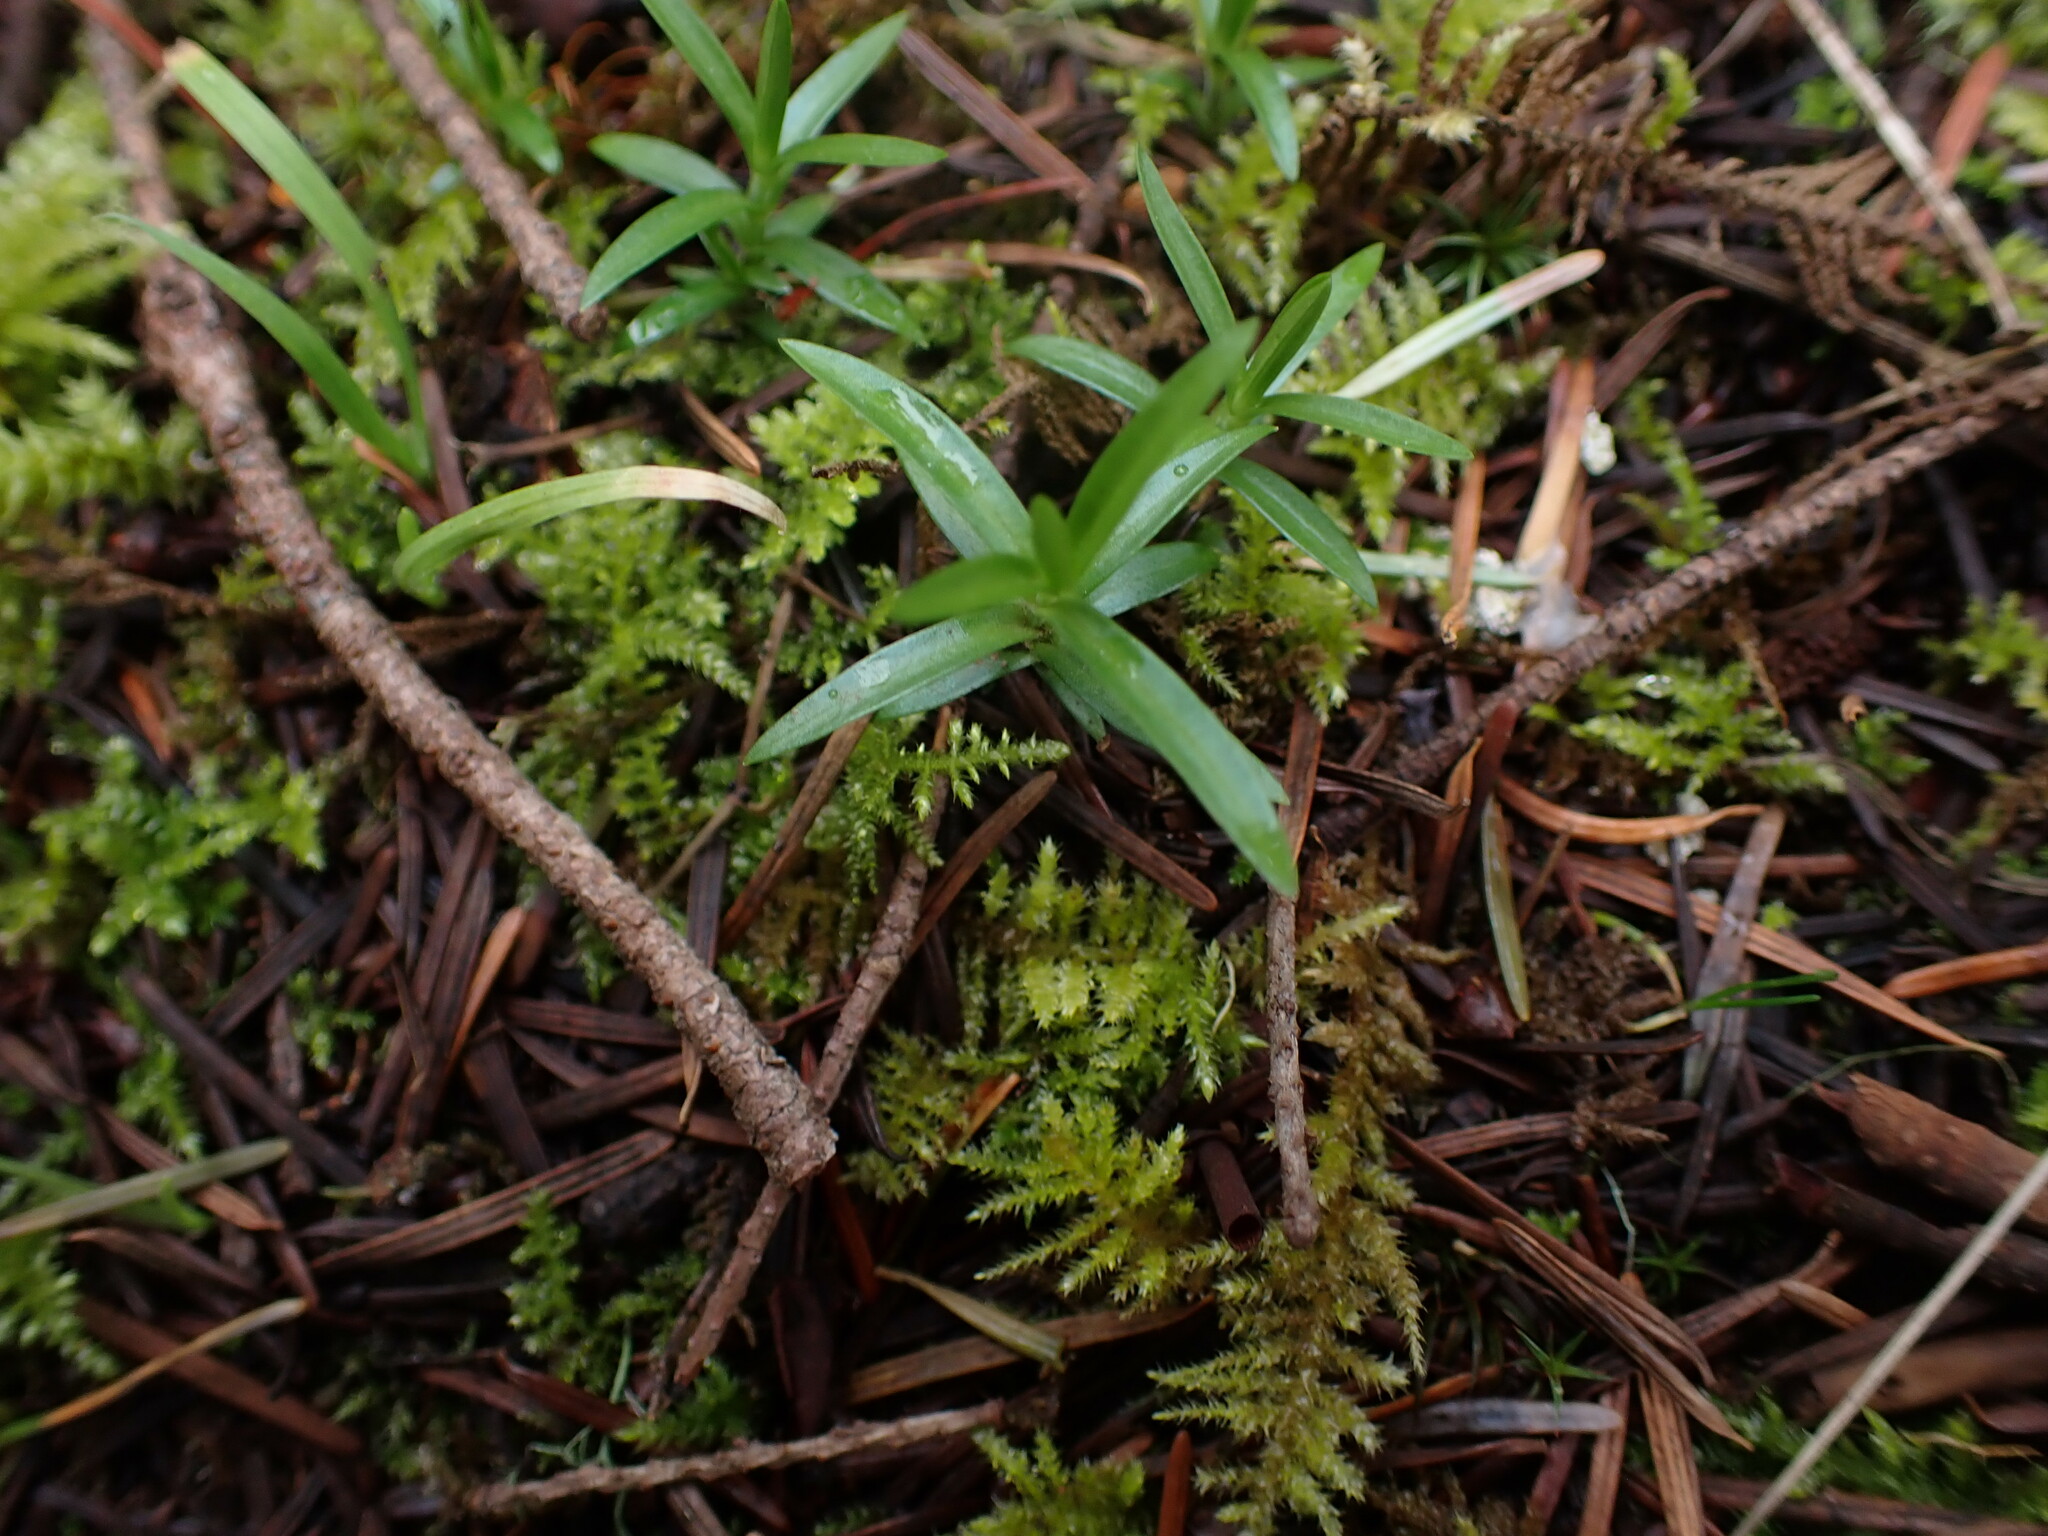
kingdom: Plantae
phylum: Tracheophyta
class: Magnoliopsida
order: Caryophyllales
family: Caryophyllaceae
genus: Moehringia
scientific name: Moehringia macrophylla
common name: Big-leaf sandwort
